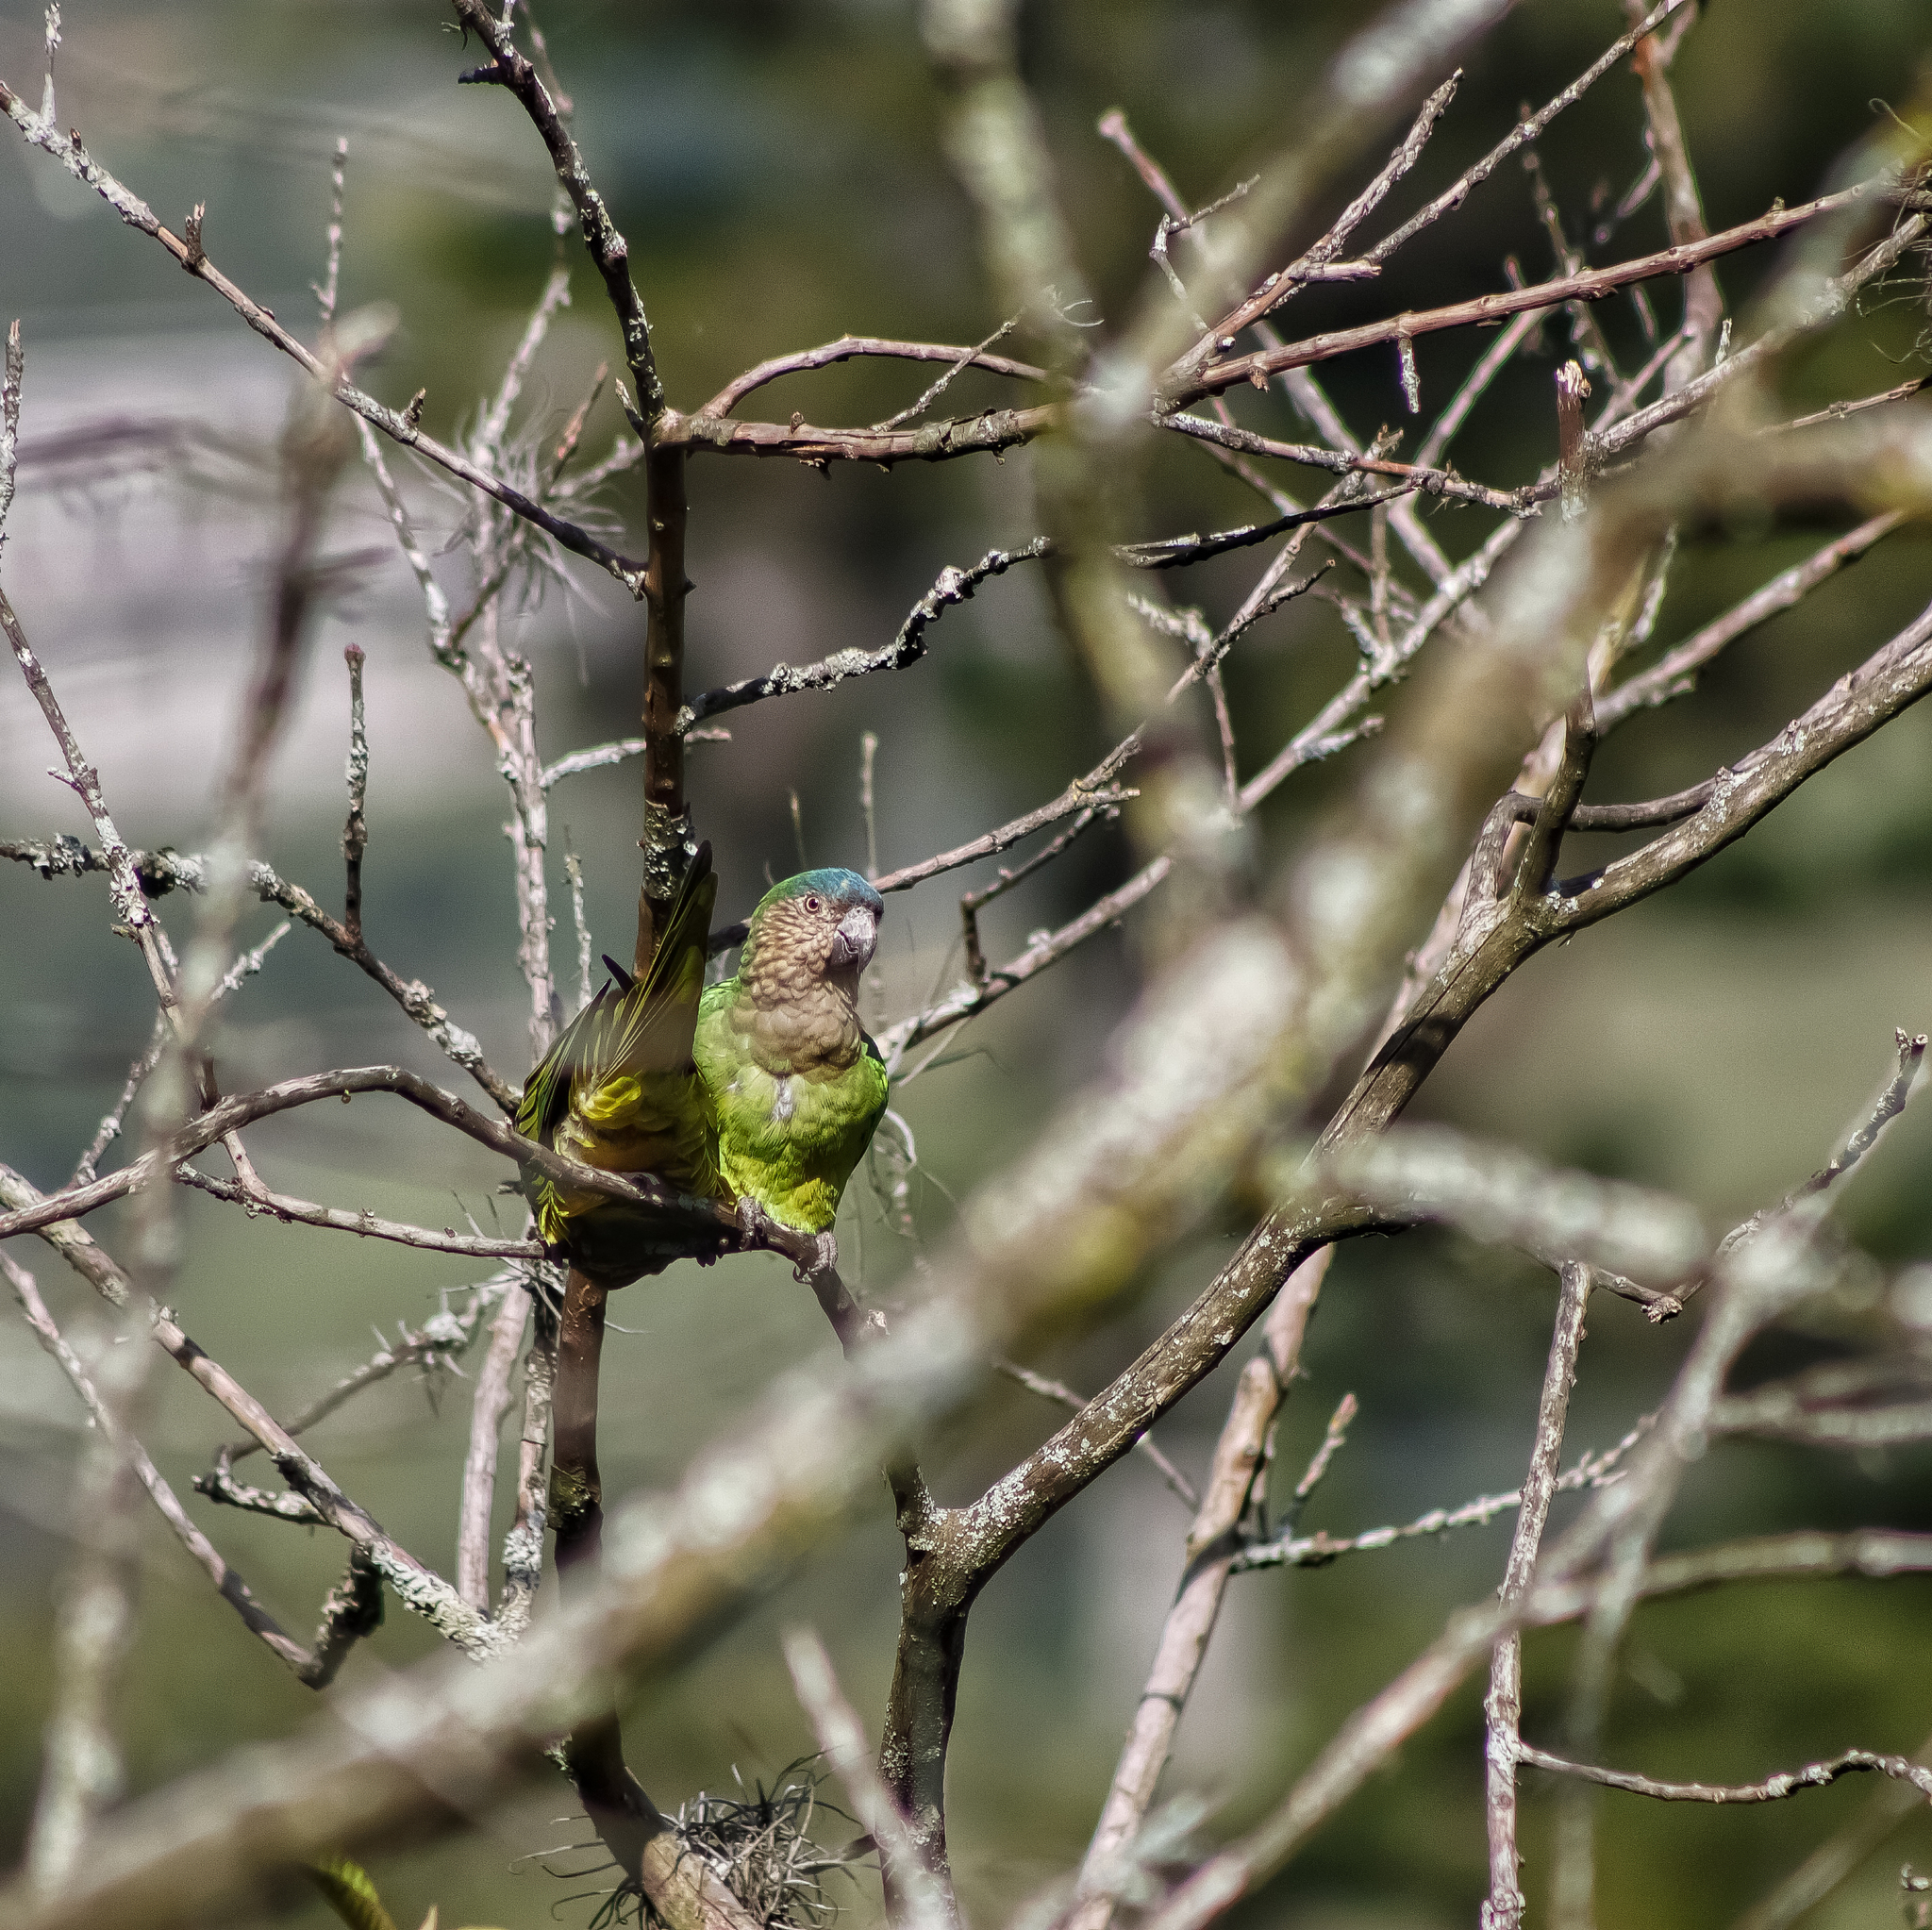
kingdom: Animalia
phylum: Chordata
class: Aves
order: Psittaciformes
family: Psittacidae
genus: Aratinga
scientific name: Aratinga pertinax
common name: Brown-throated parakeet
